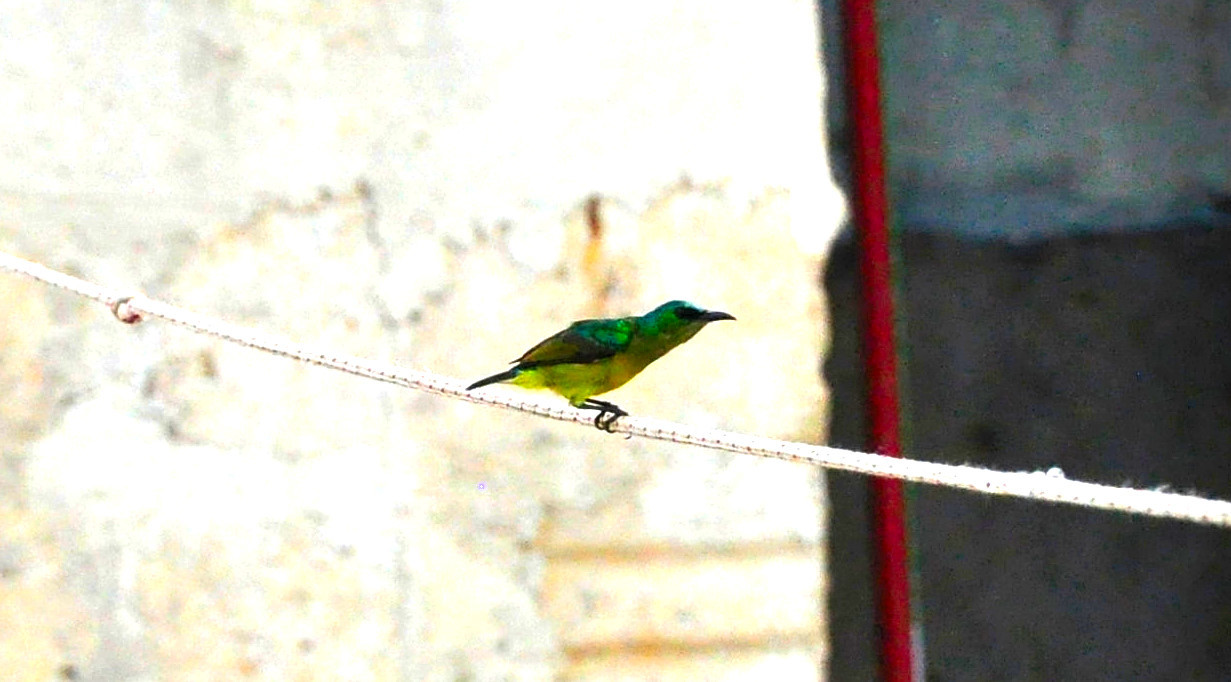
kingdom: Animalia
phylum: Chordata
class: Aves
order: Passeriformes
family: Nectariniidae
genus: Hedydipna
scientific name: Hedydipna collaris
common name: Collared sunbird
